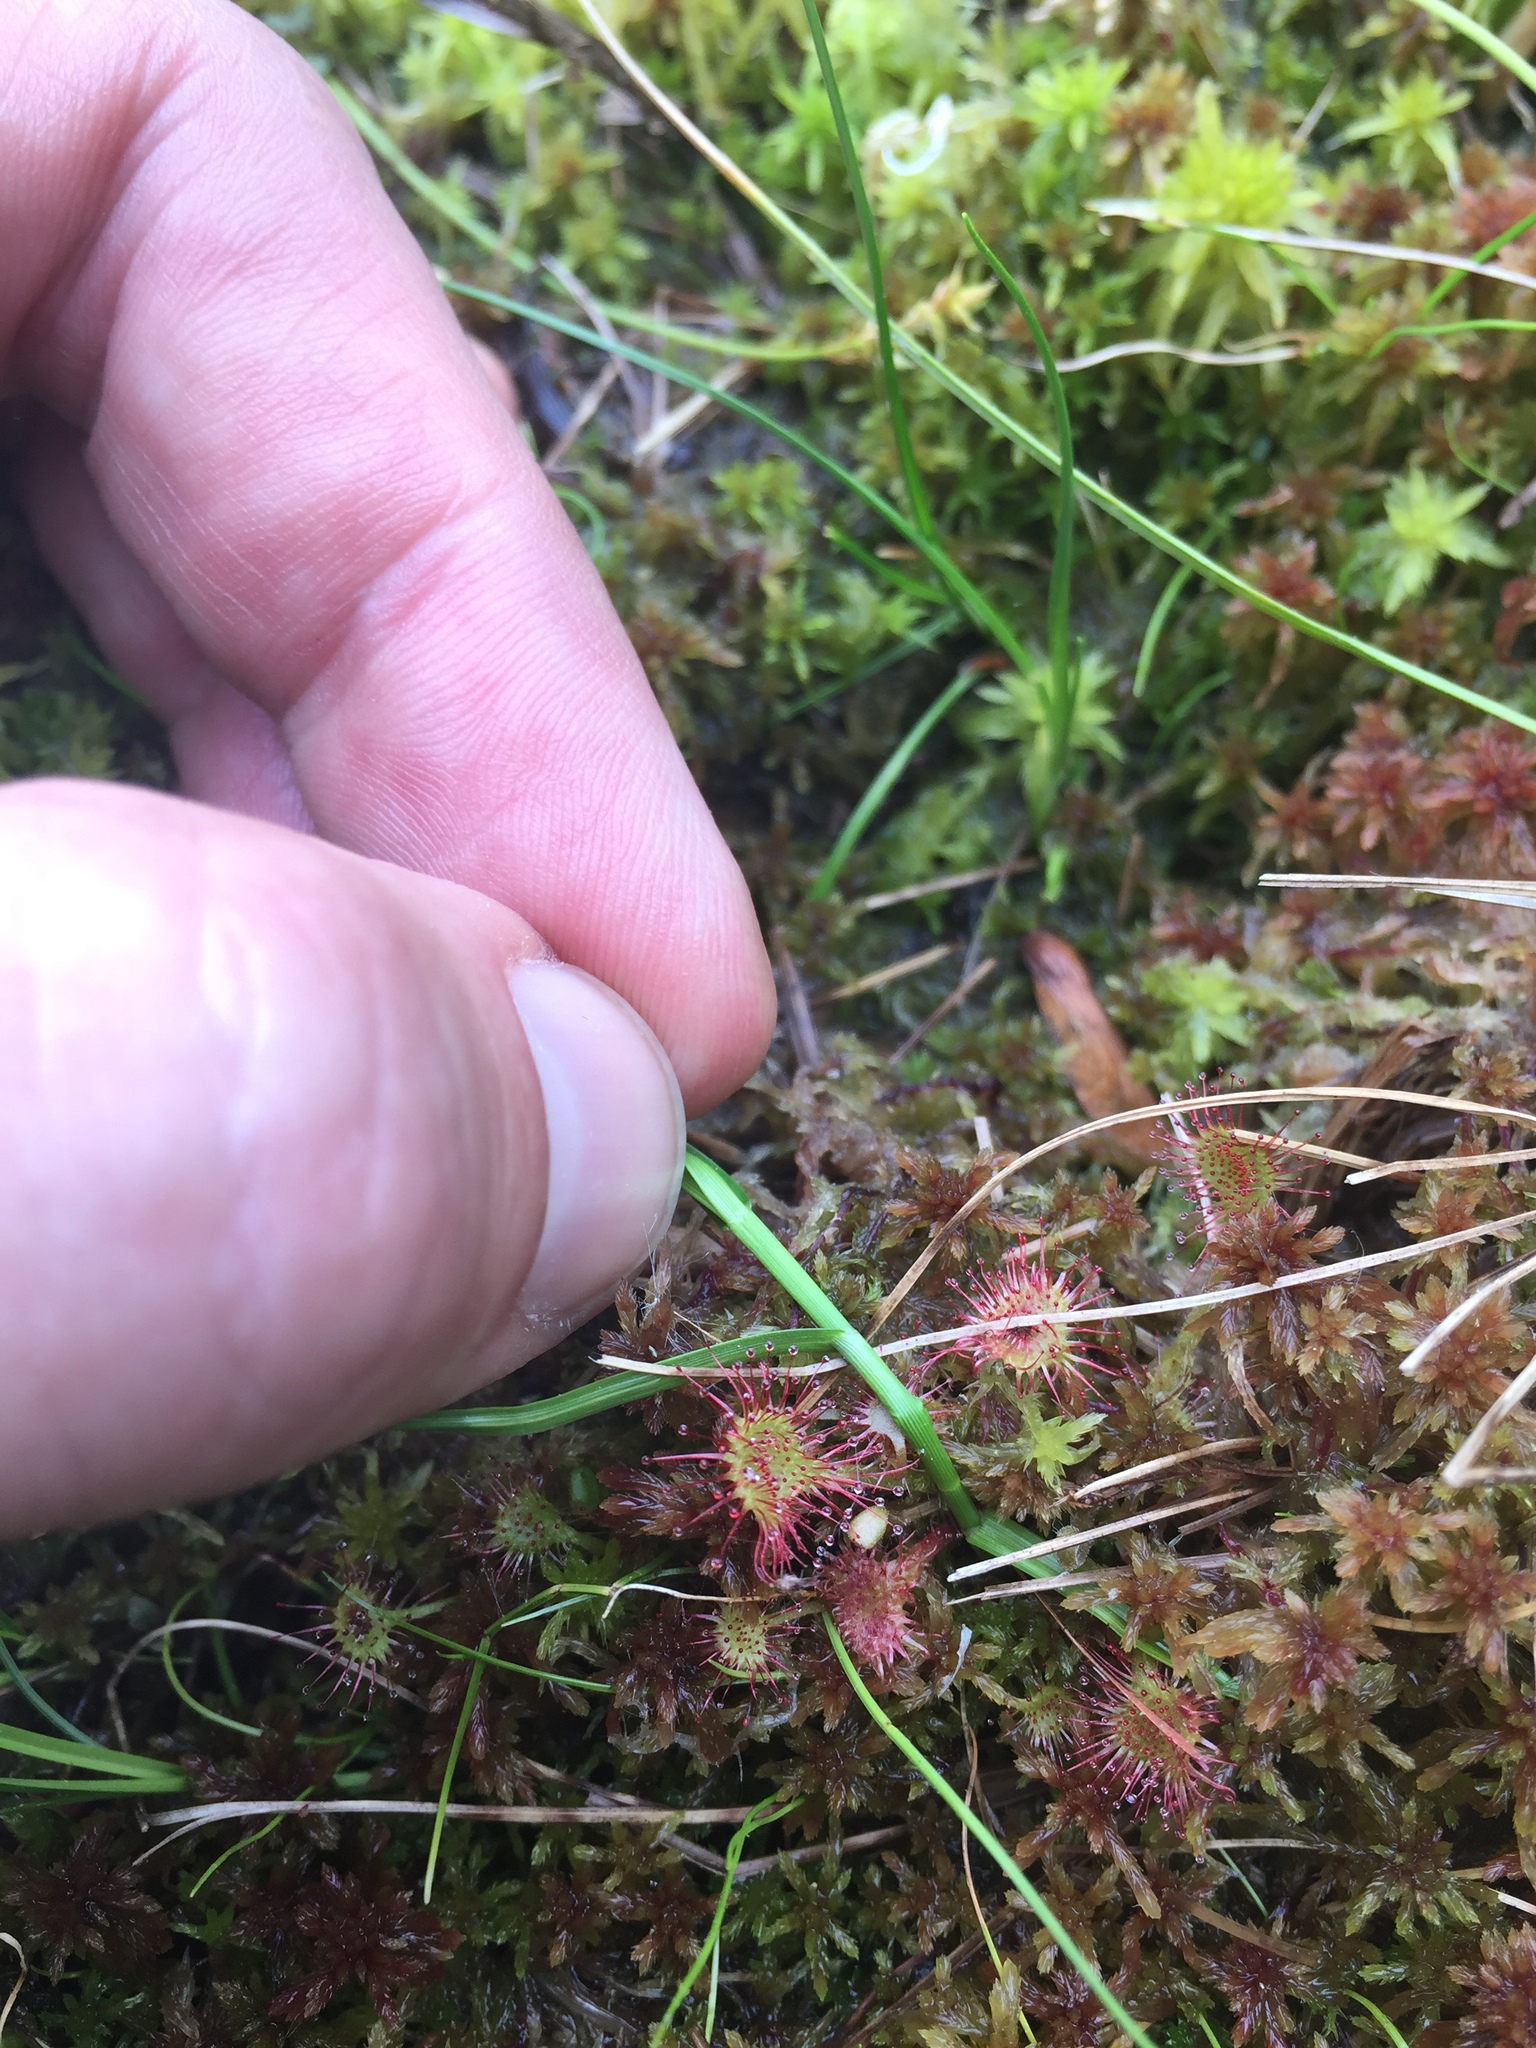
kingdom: Plantae
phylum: Tracheophyta
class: Magnoliopsida
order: Caryophyllales
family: Droseraceae
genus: Drosera
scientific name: Drosera rotundifolia
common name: Round-leaved sundew
